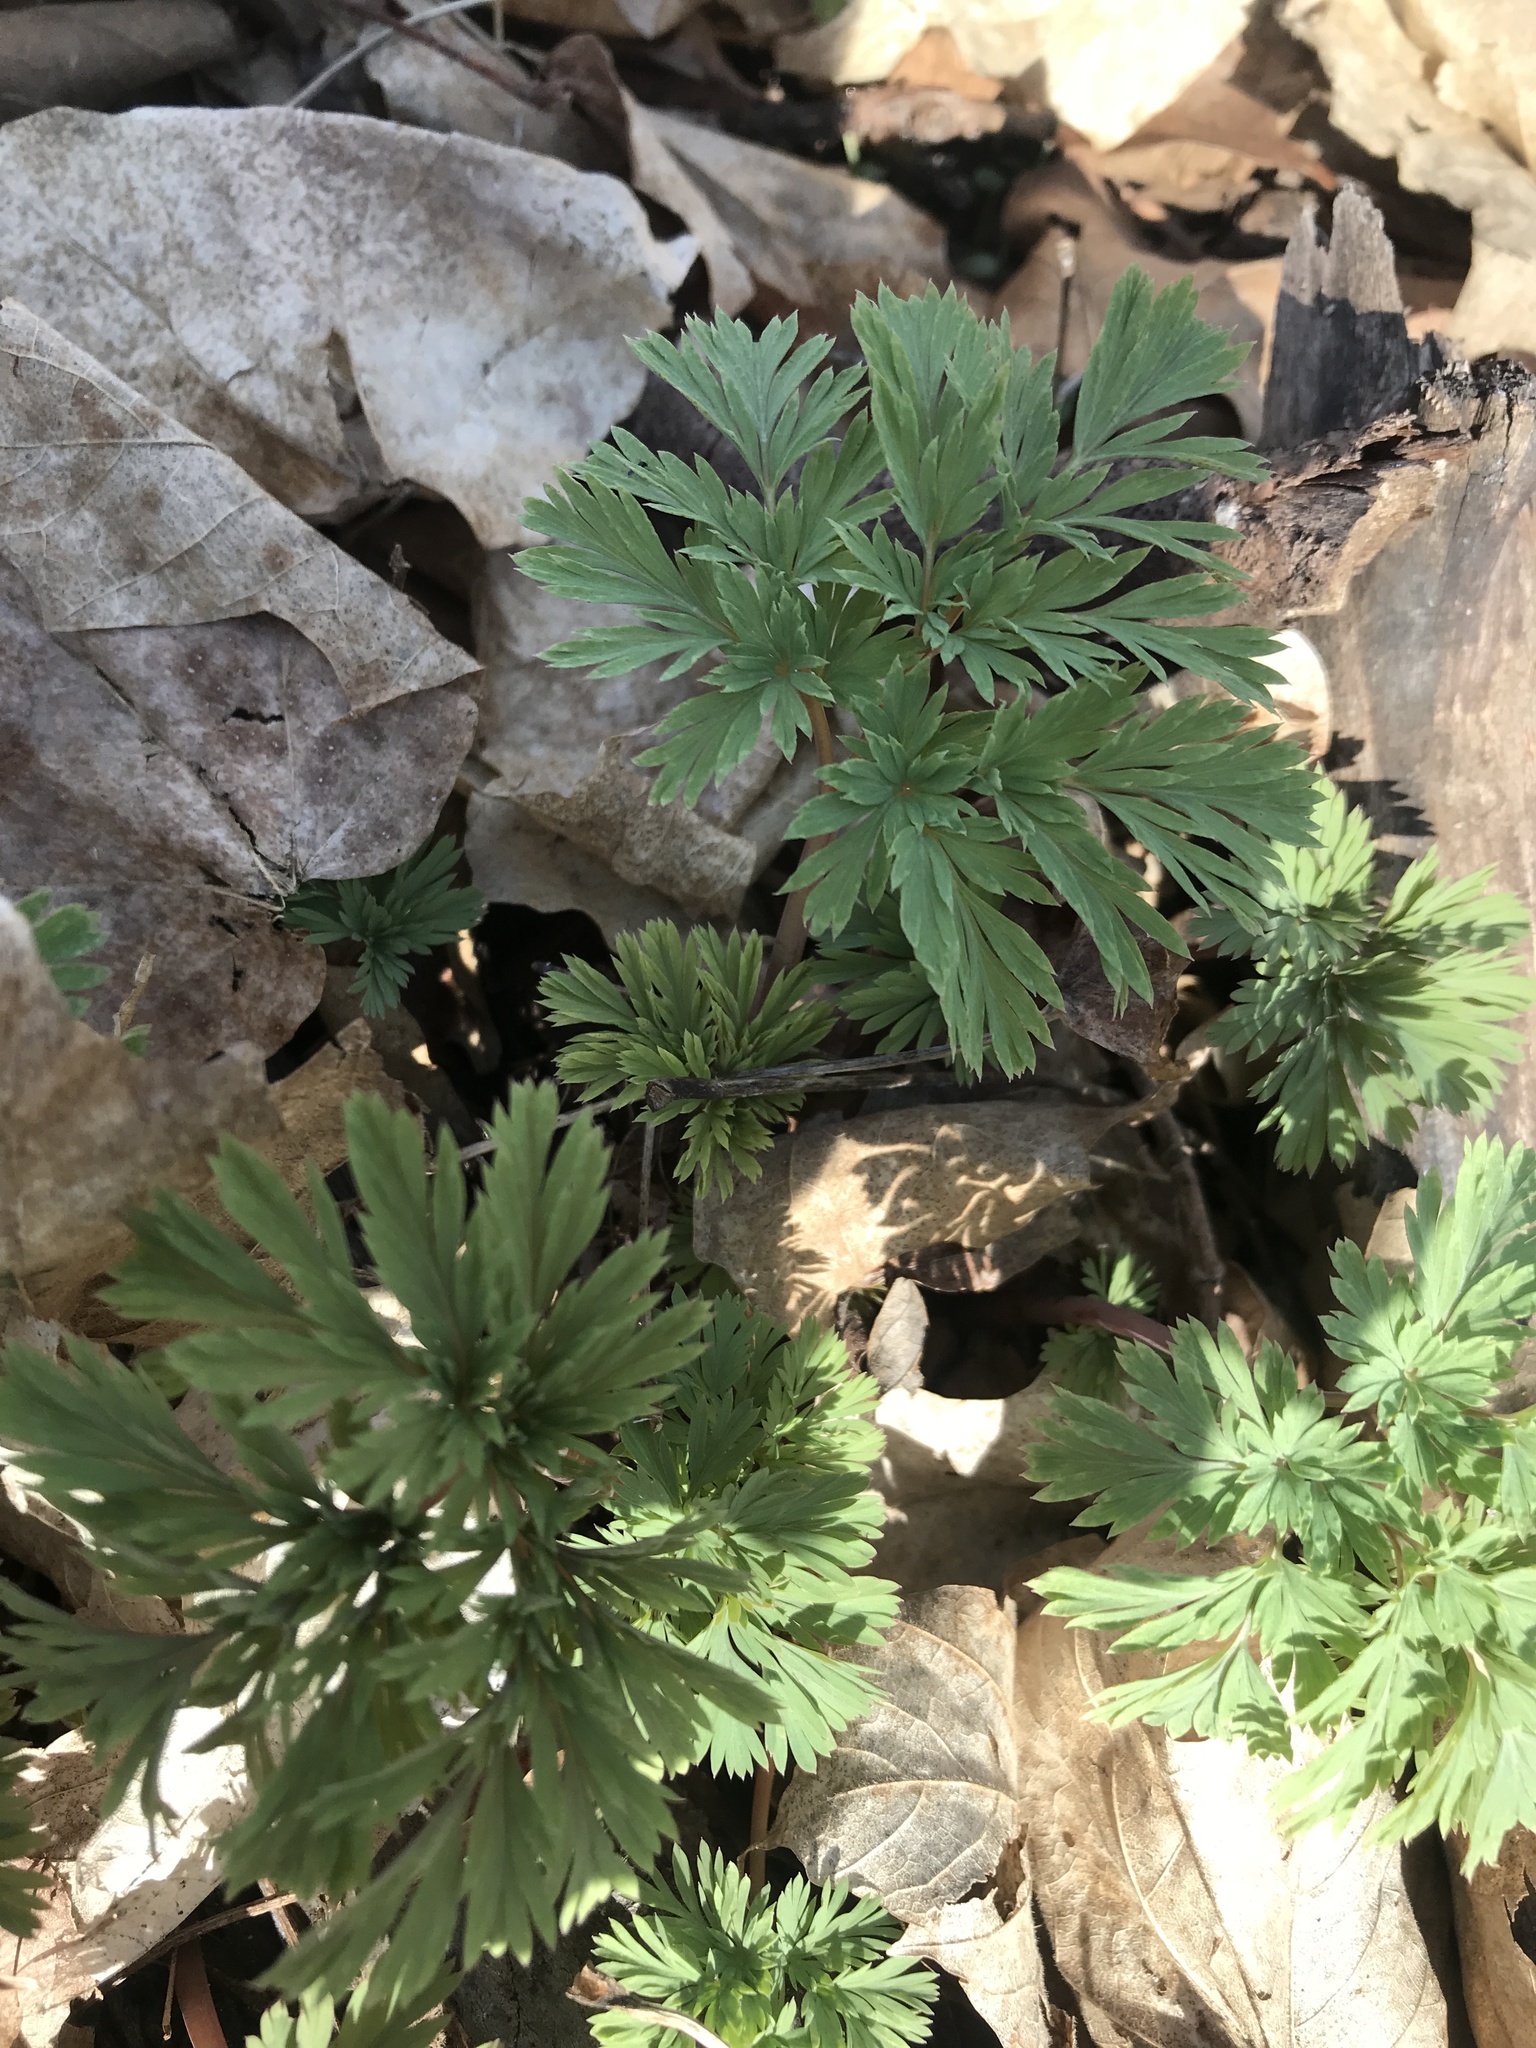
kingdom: Plantae
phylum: Tracheophyta
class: Magnoliopsida
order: Ranunculales
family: Papaveraceae
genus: Dicentra
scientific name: Dicentra cucullaria
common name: Dutchman's breeches
